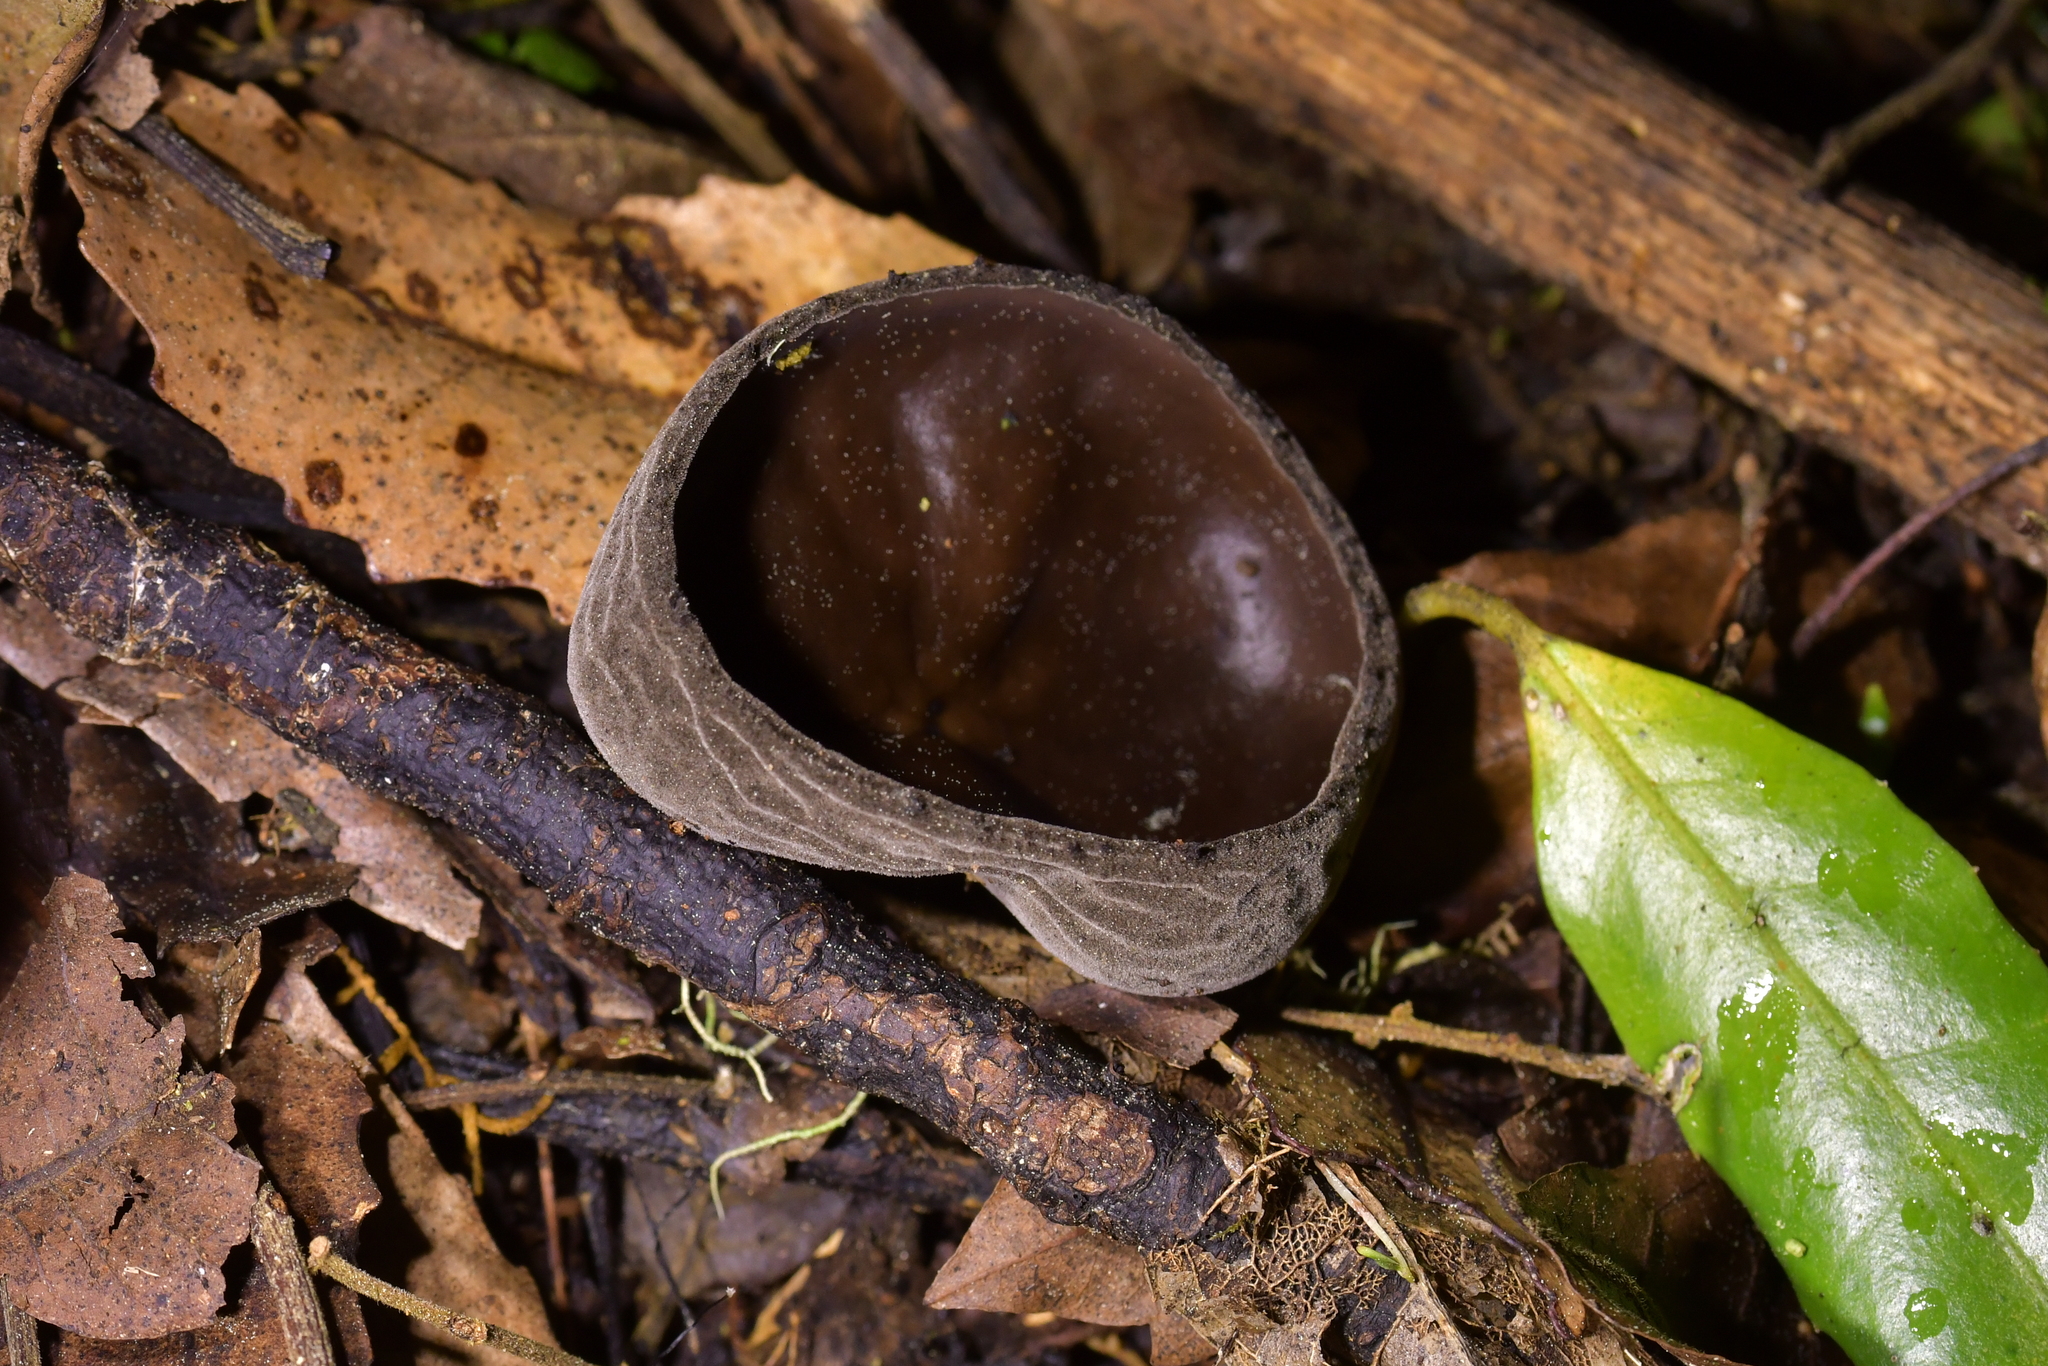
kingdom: Fungi
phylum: Ascomycota
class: Pezizomycetes
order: Pezizales
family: Sarcosomataceae
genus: Plectania
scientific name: Plectania campylospora
